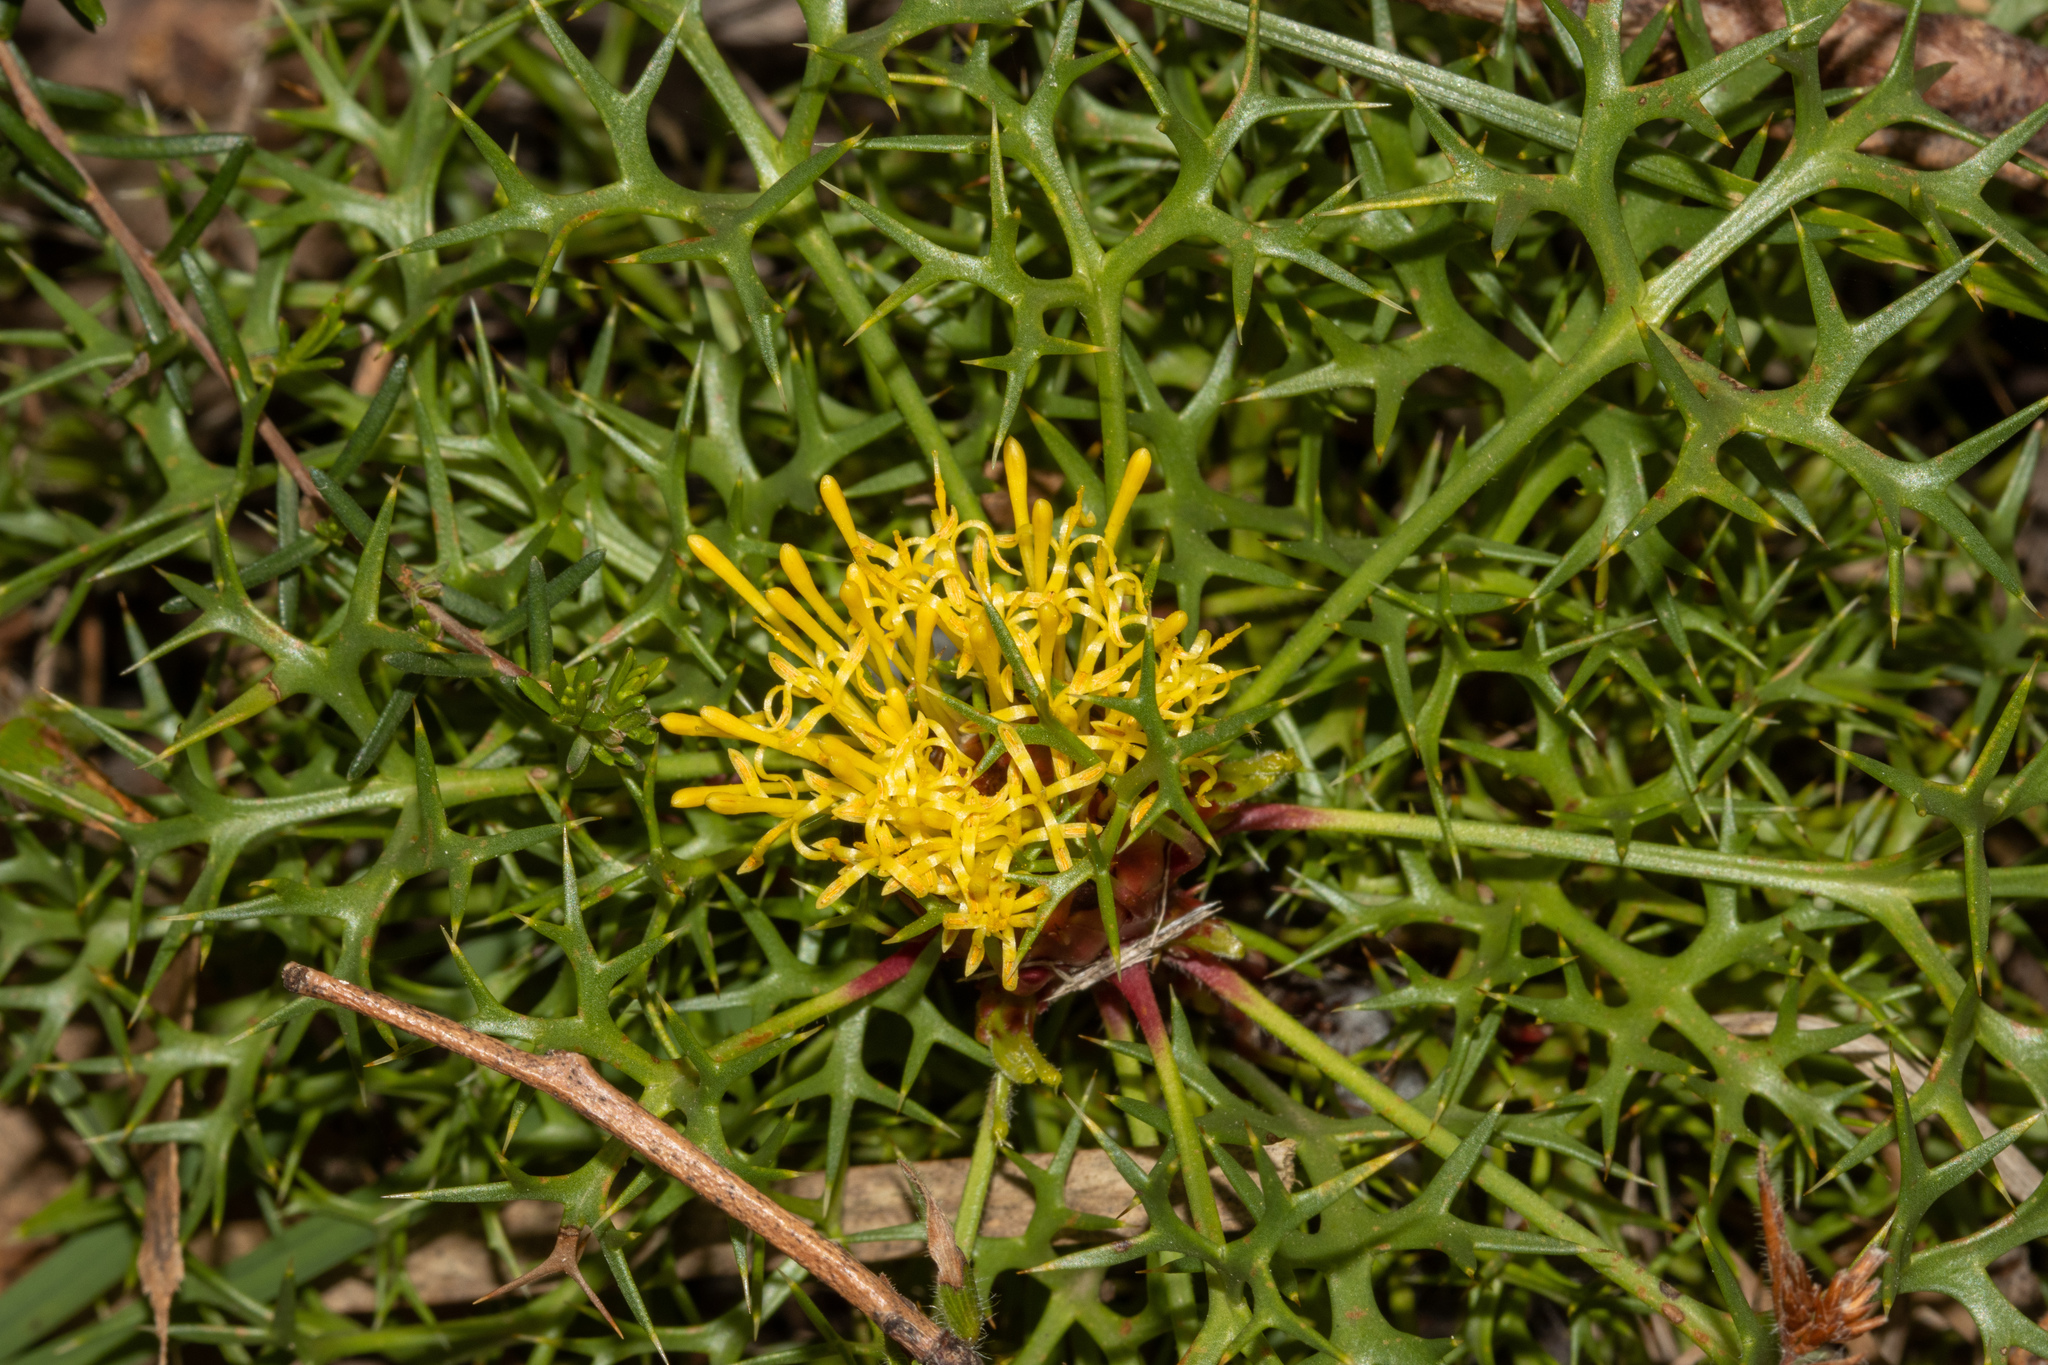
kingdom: Plantae
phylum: Tracheophyta
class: Magnoliopsida
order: Proteales
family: Proteaceae
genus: Isopogon
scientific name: Isopogon ceratophyllus
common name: Horny cone-bush
